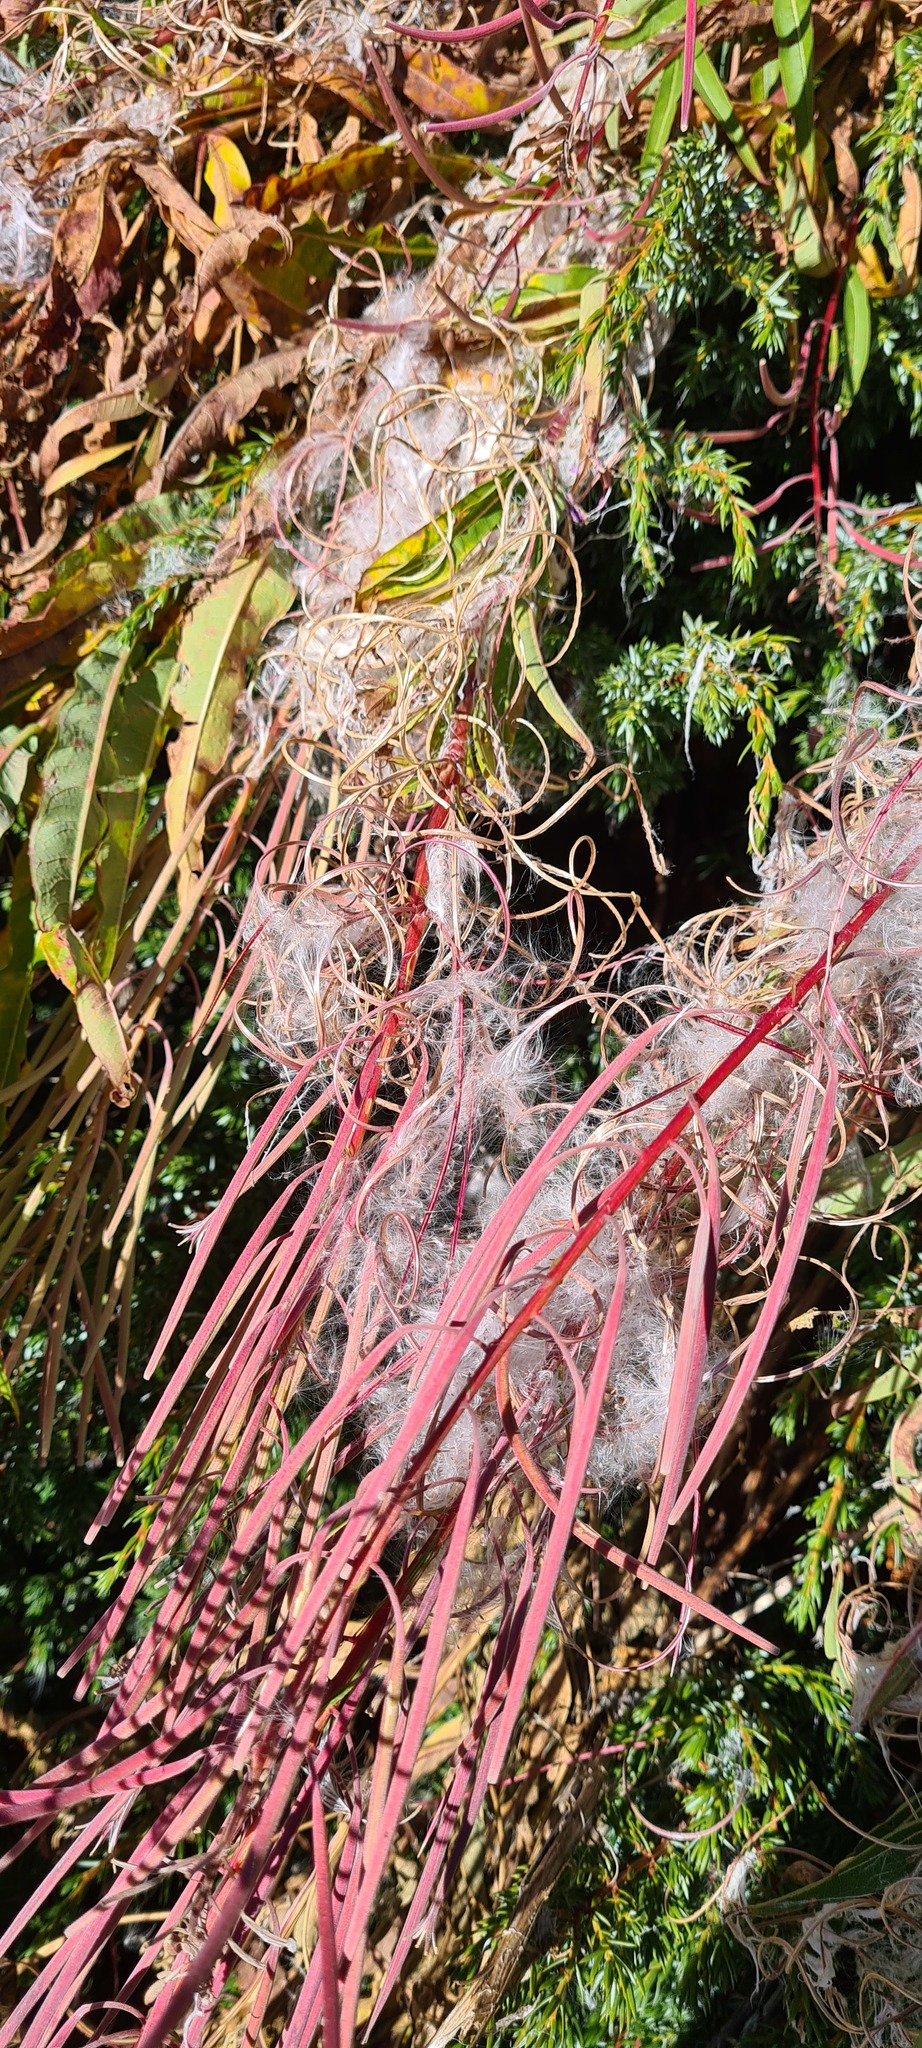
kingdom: Plantae
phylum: Tracheophyta
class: Magnoliopsida
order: Myrtales
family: Onagraceae
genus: Chamaenerion
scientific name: Chamaenerion angustifolium
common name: Fireweed
